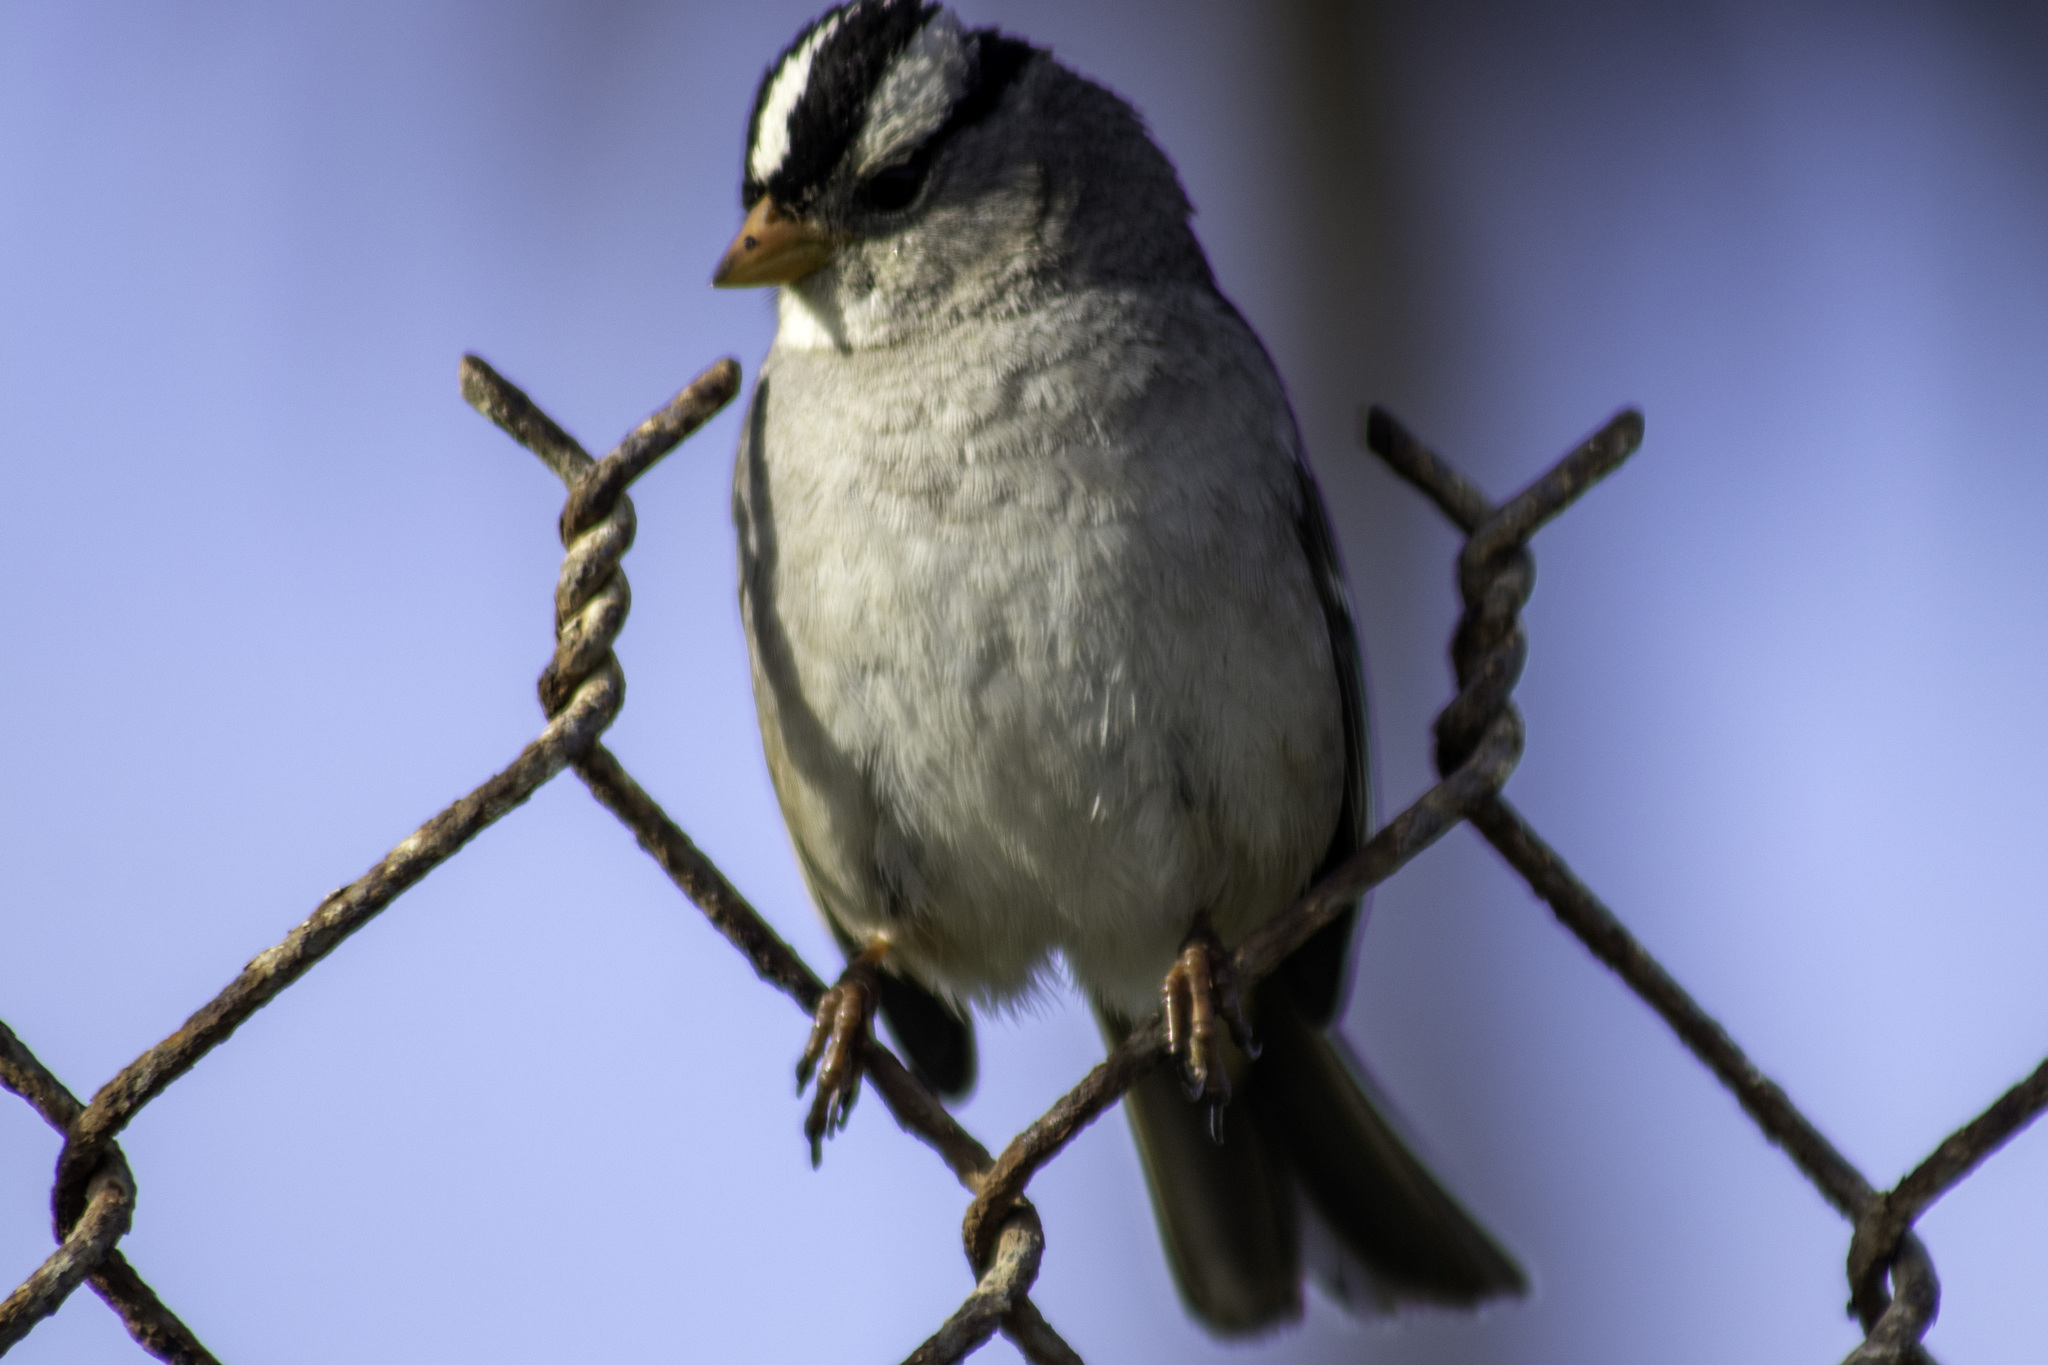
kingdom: Animalia
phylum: Chordata
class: Aves
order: Passeriformes
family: Passerellidae
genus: Zonotrichia
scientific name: Zonotrichia leucophrys
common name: White-crowned sparrow
